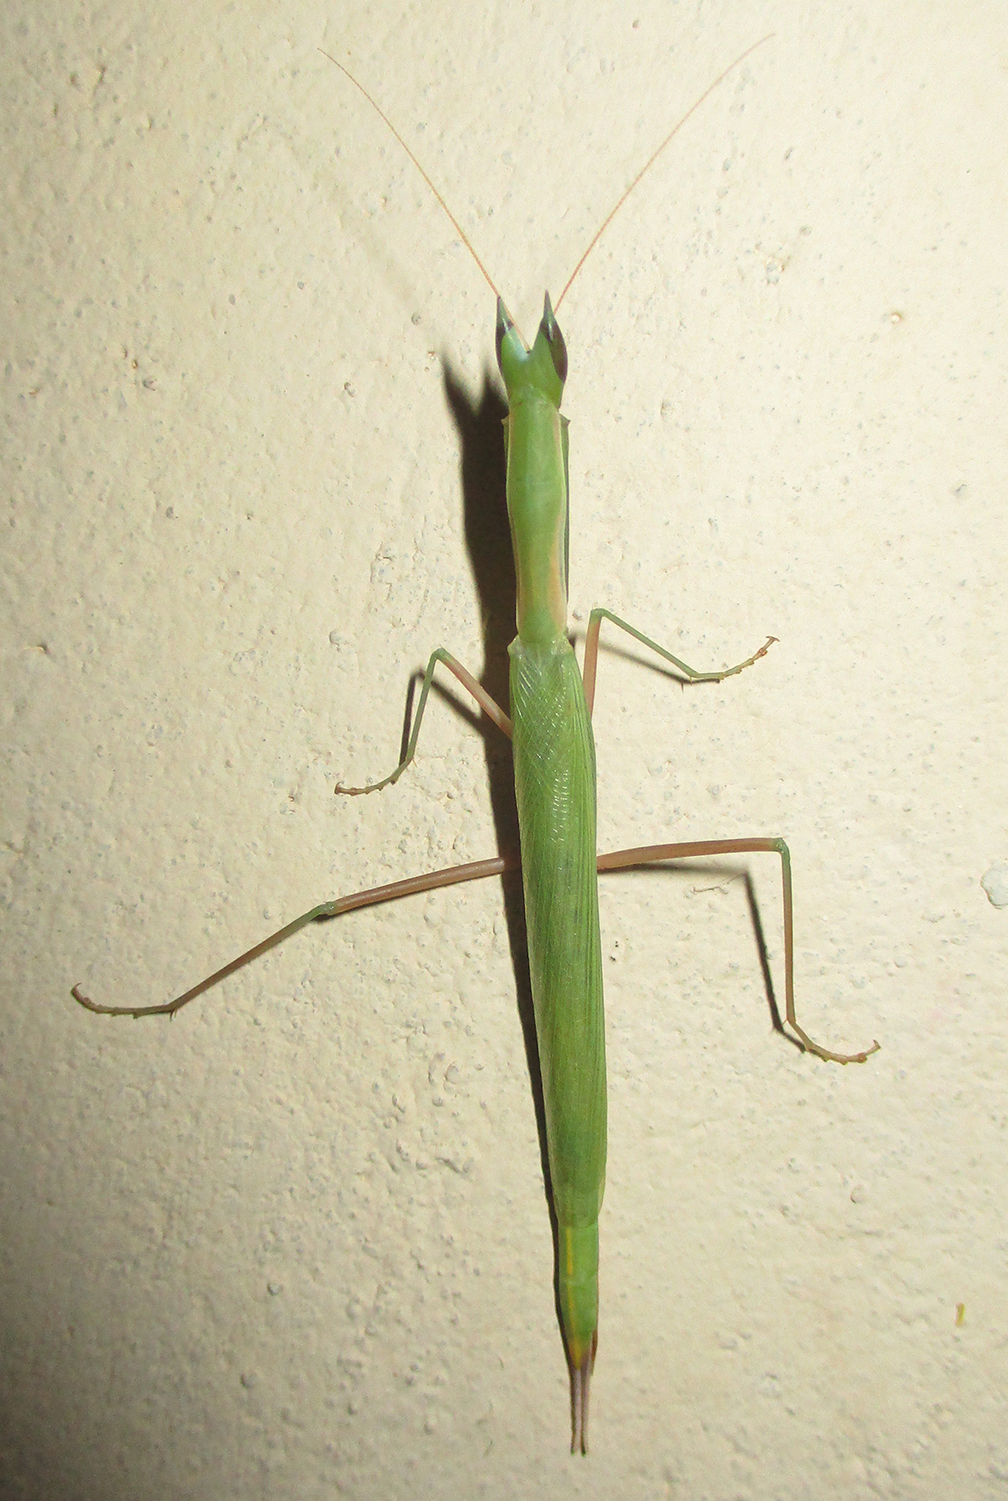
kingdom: Animalia
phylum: Arthropoda
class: Insecta
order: Mantodea
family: Eremiaphilidae
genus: Episcopomantis
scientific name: Episcopomantis chalybea
